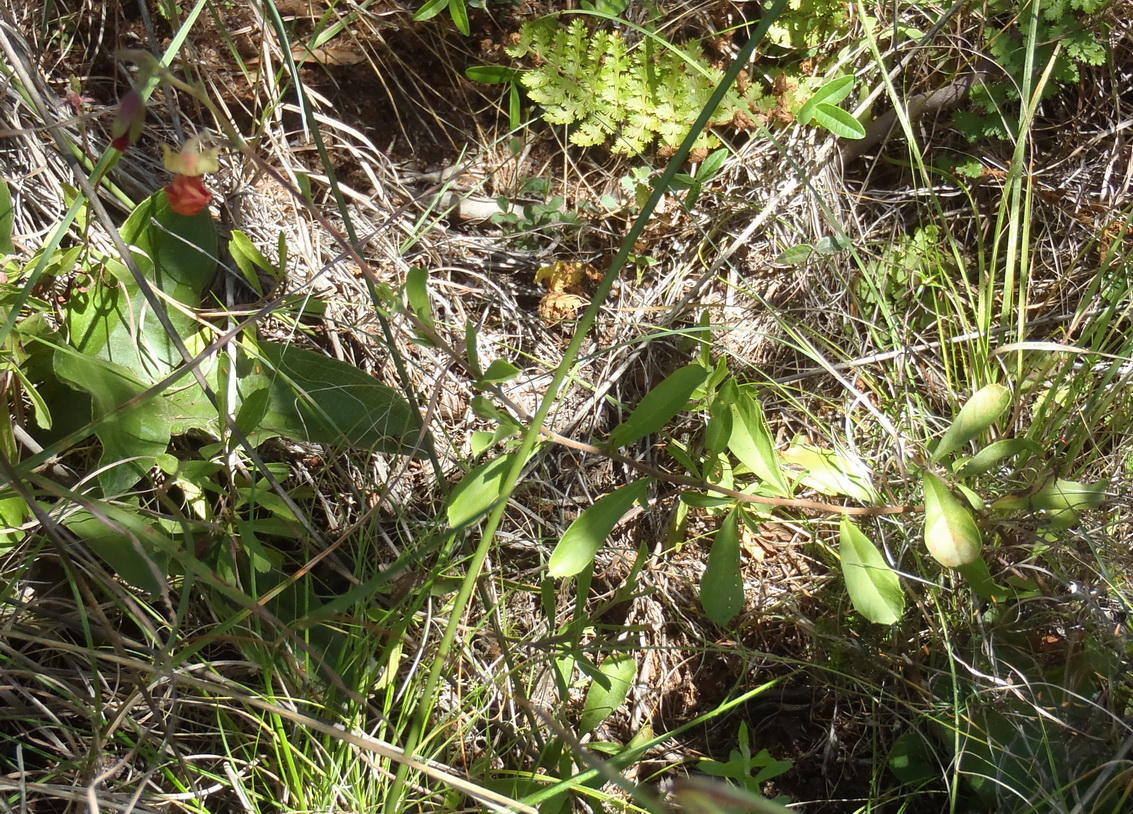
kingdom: Plantae
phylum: Tracheophyta
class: Magnoliopsida
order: Malvales
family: Malvaceae
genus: Hermannia
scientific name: Hermannia flammula
